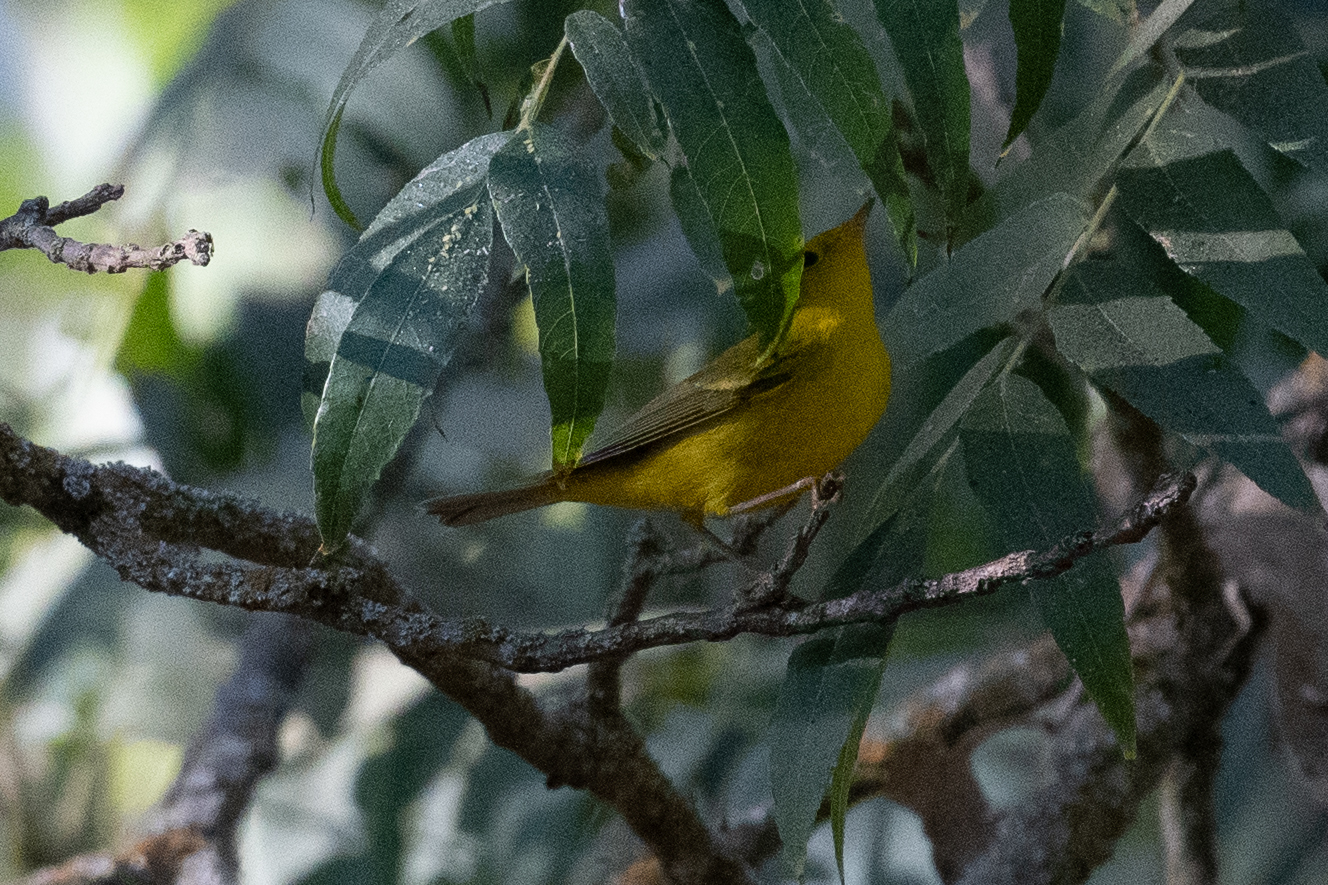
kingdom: Animalia
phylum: Chordata
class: Aves
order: Passeriformes
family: Parulidae
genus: Cardellina
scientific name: Cardellina pusilla
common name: Wilson's warbler
